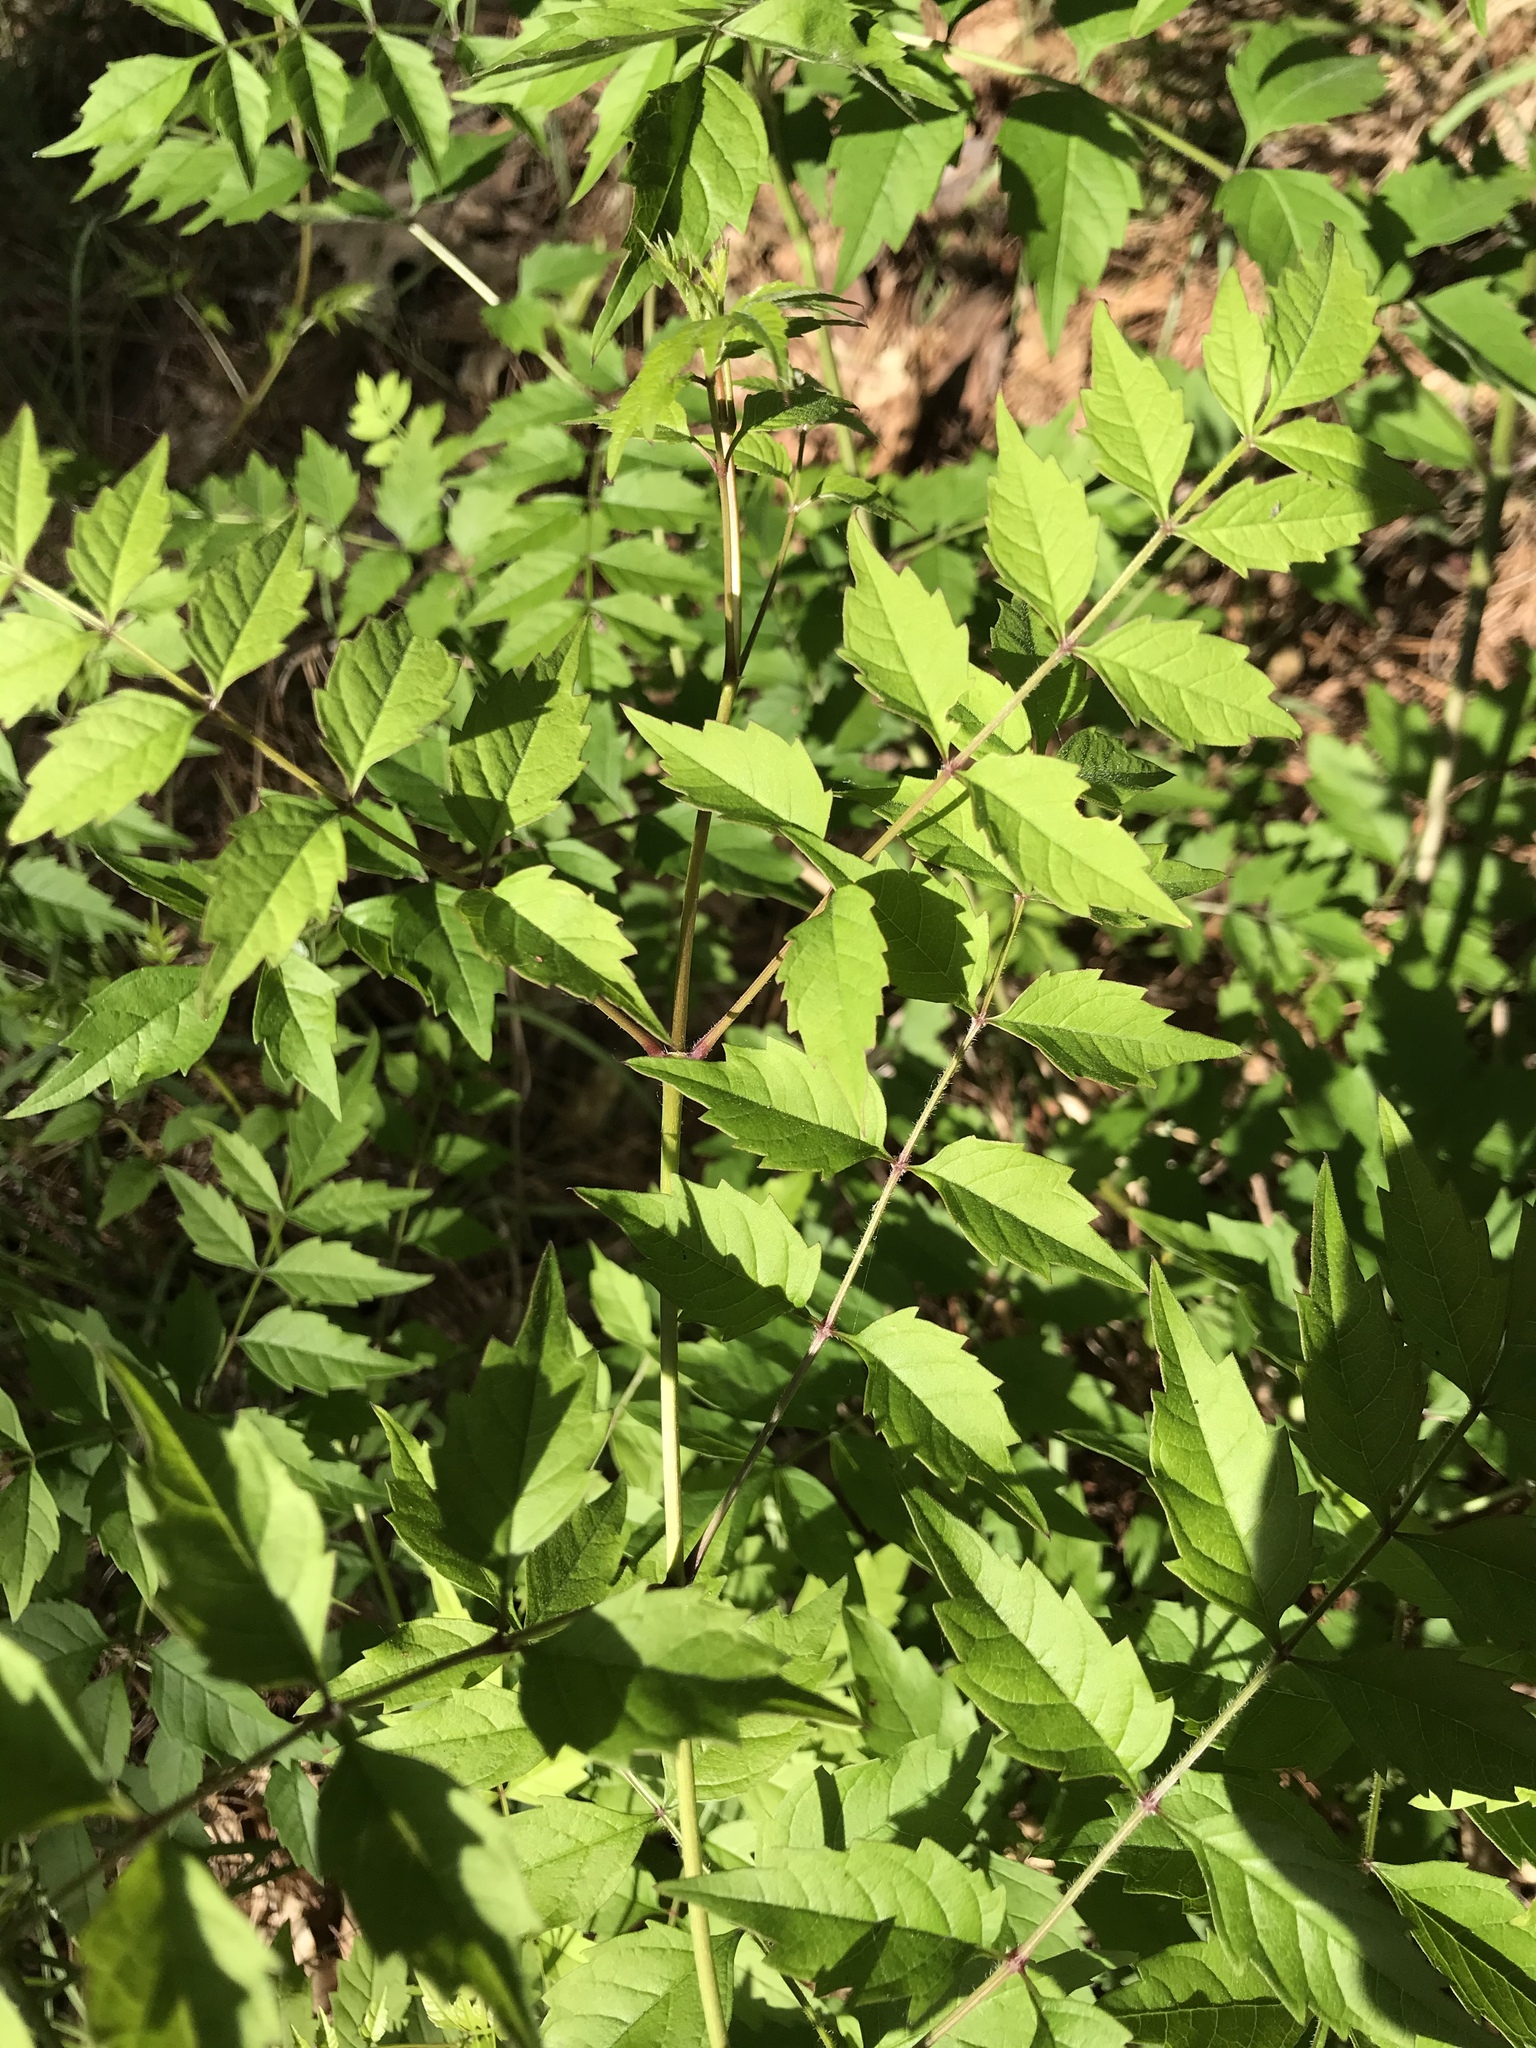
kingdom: Plantae
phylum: Tracheophyta
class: Magnoliopsida
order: Lamiales
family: Bignoniaceae
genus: Campsis
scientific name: Campsis radicans
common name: Trumpet-creeper
